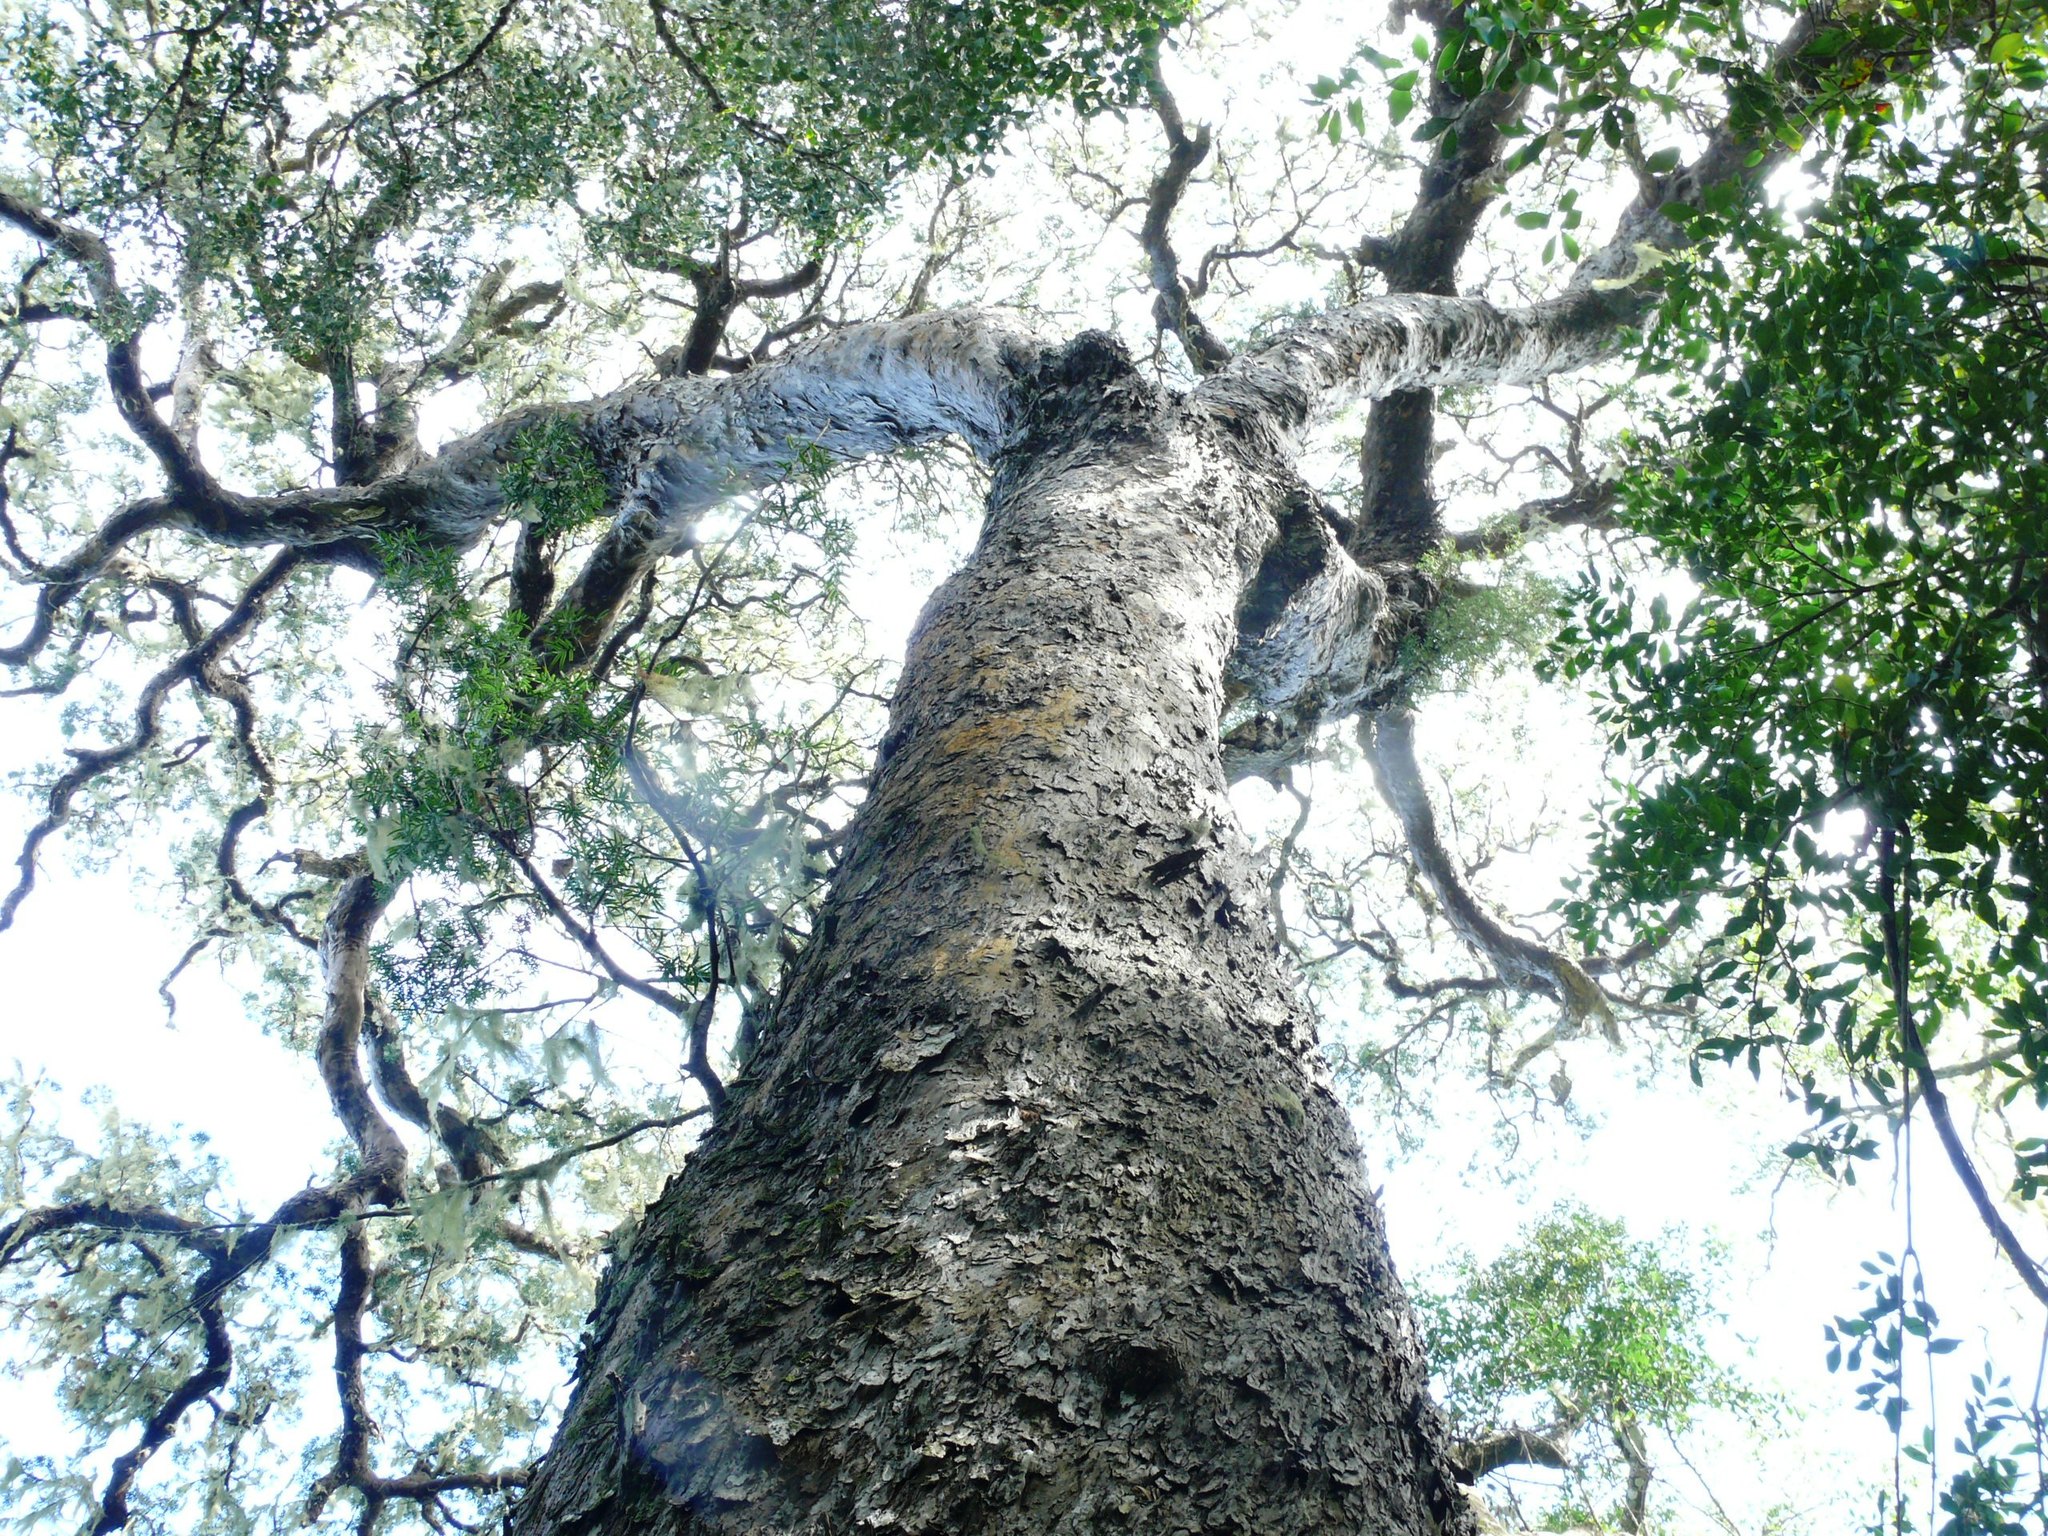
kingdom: Plantae
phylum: Tracheophyta
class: Pinopsida
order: Pinales
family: Podocarpaceae
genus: Afrocarpus
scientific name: Afrocarpus falcatus
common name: Bastard yellowwood
